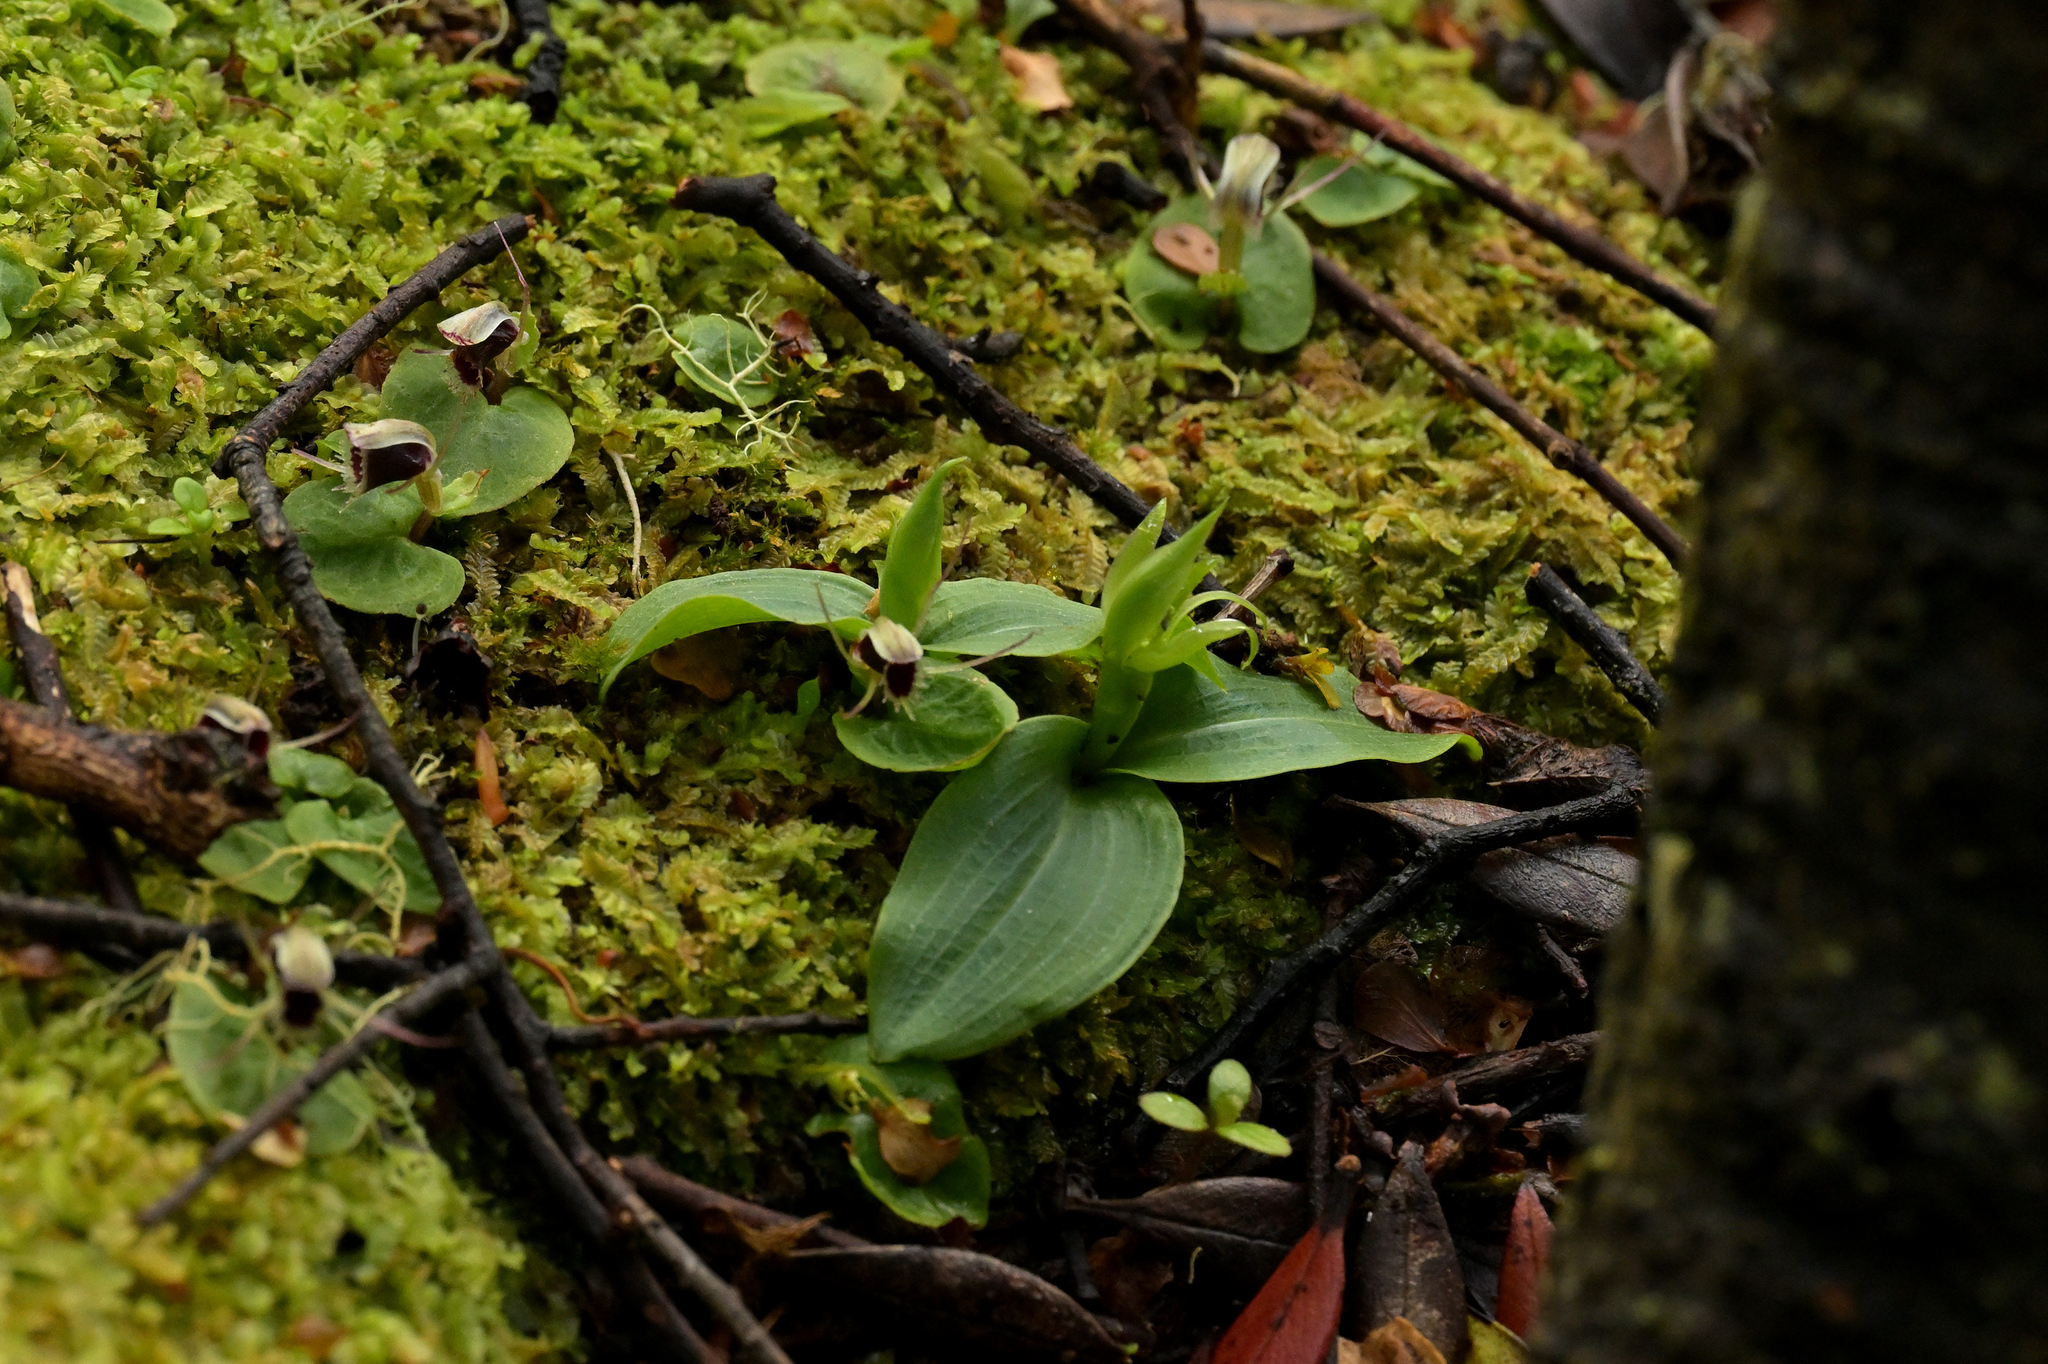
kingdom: Plantae
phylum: Tracheophyta
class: Liliopsida
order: Asparagales
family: Orchidaceae
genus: Chiloglottis
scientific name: Chiloglottis cornuta
